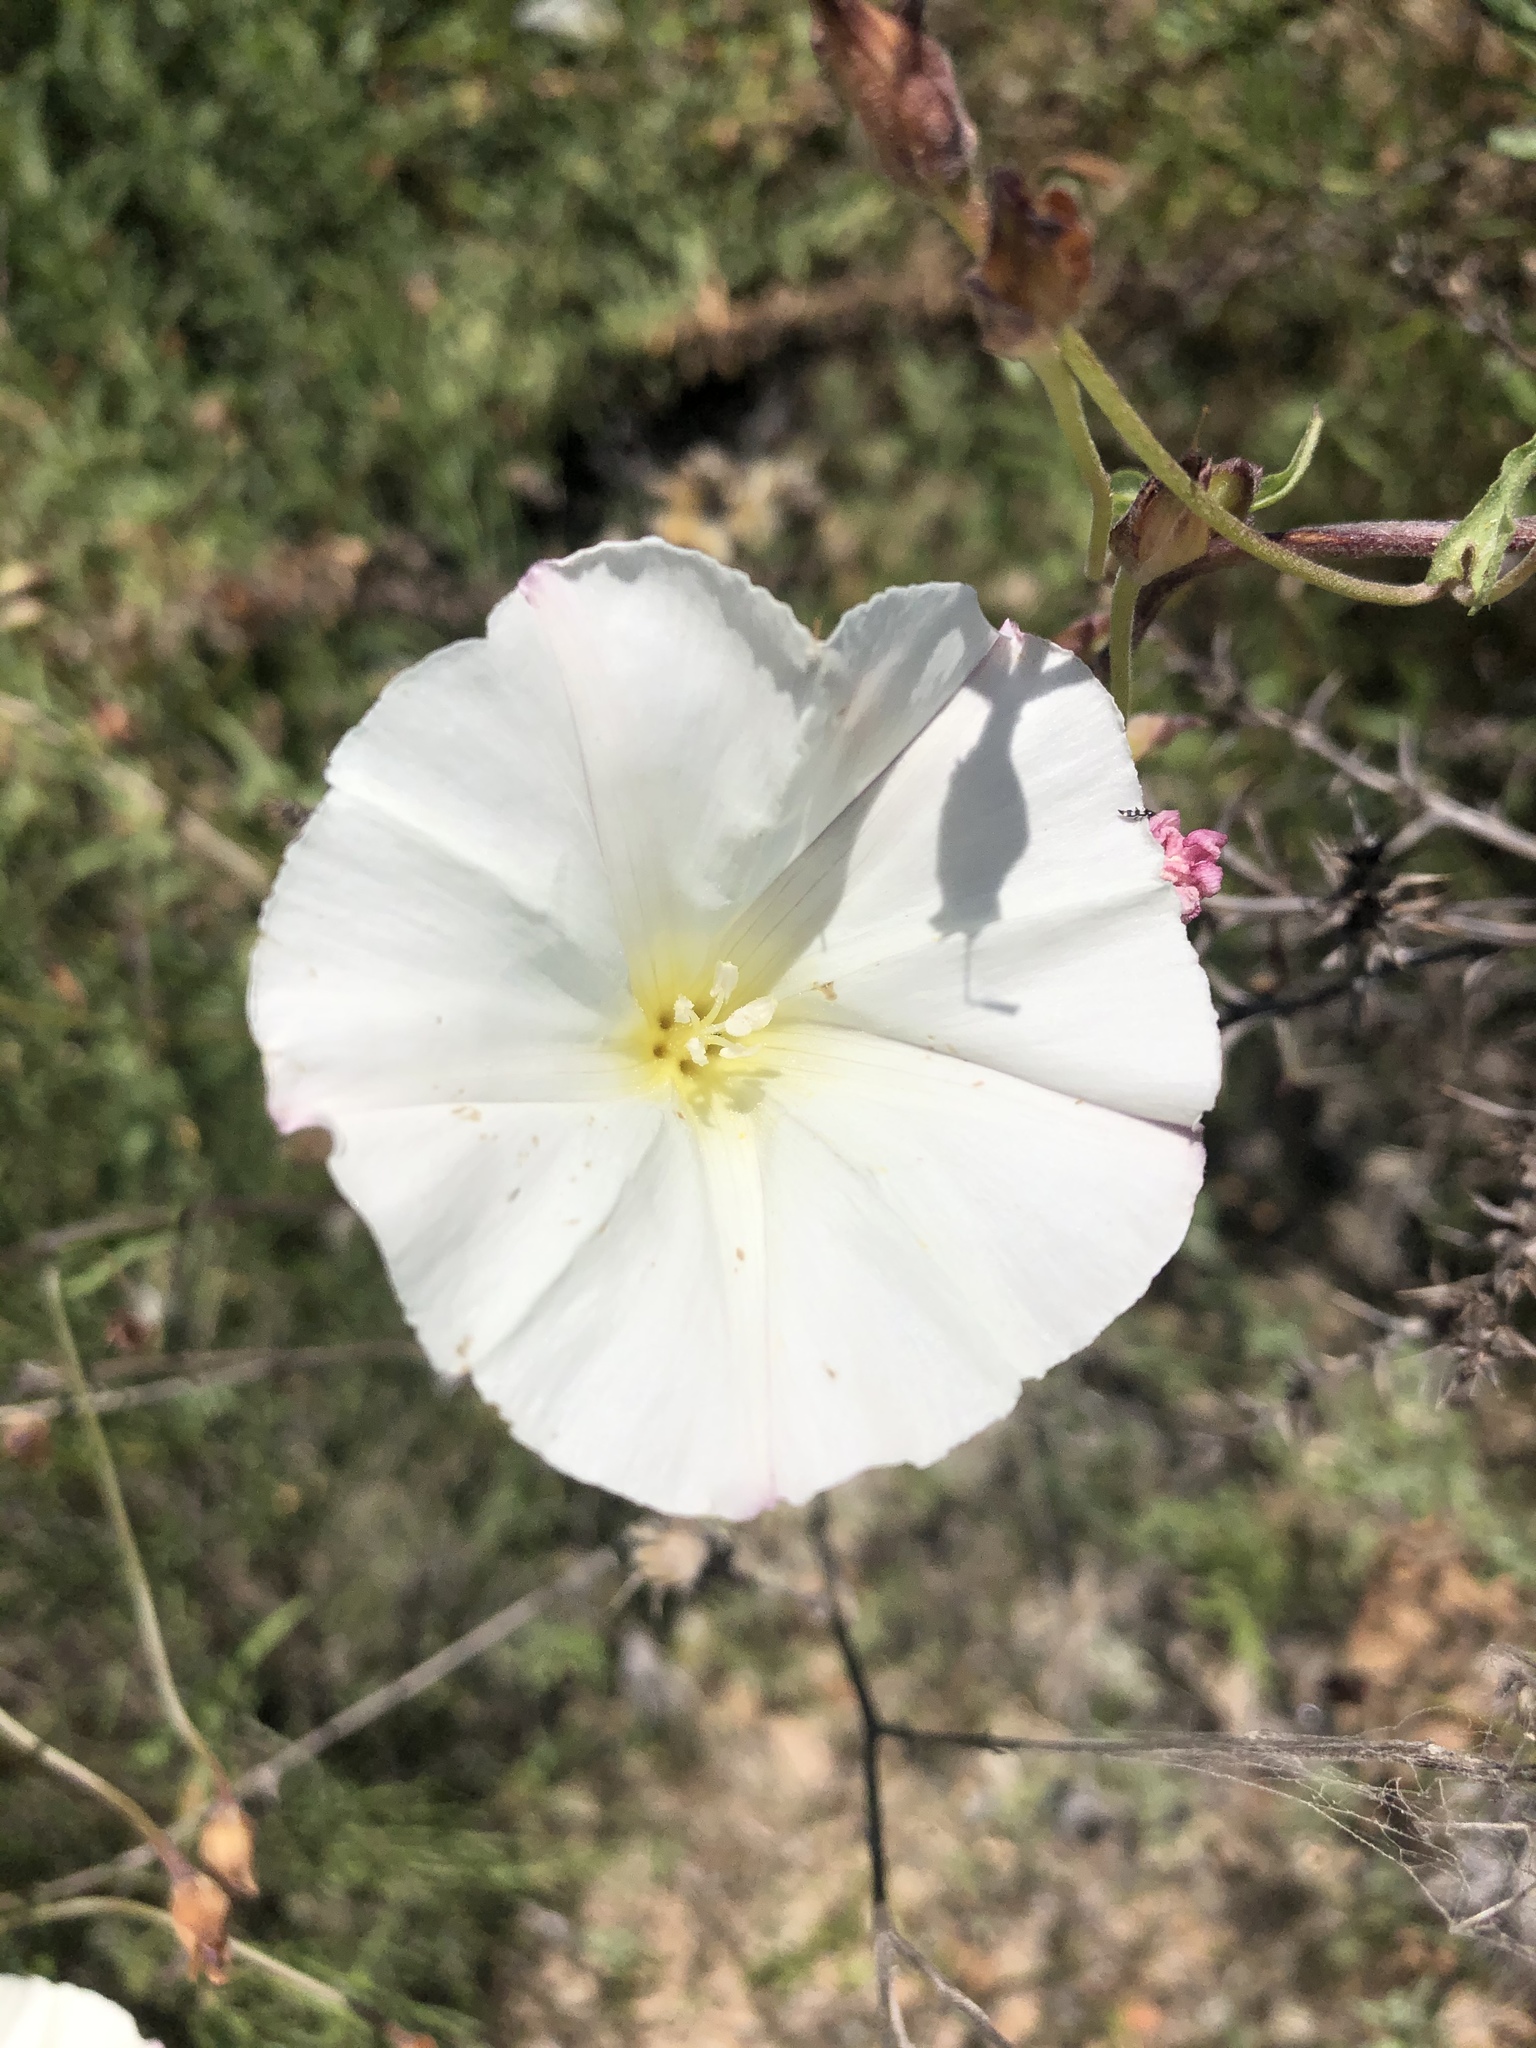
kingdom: Plantae
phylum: Tracheophyta
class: Magnoliopsida
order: Solanales
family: Convolvulaceae
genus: Calystegia
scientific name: Calystegia macrostegia
